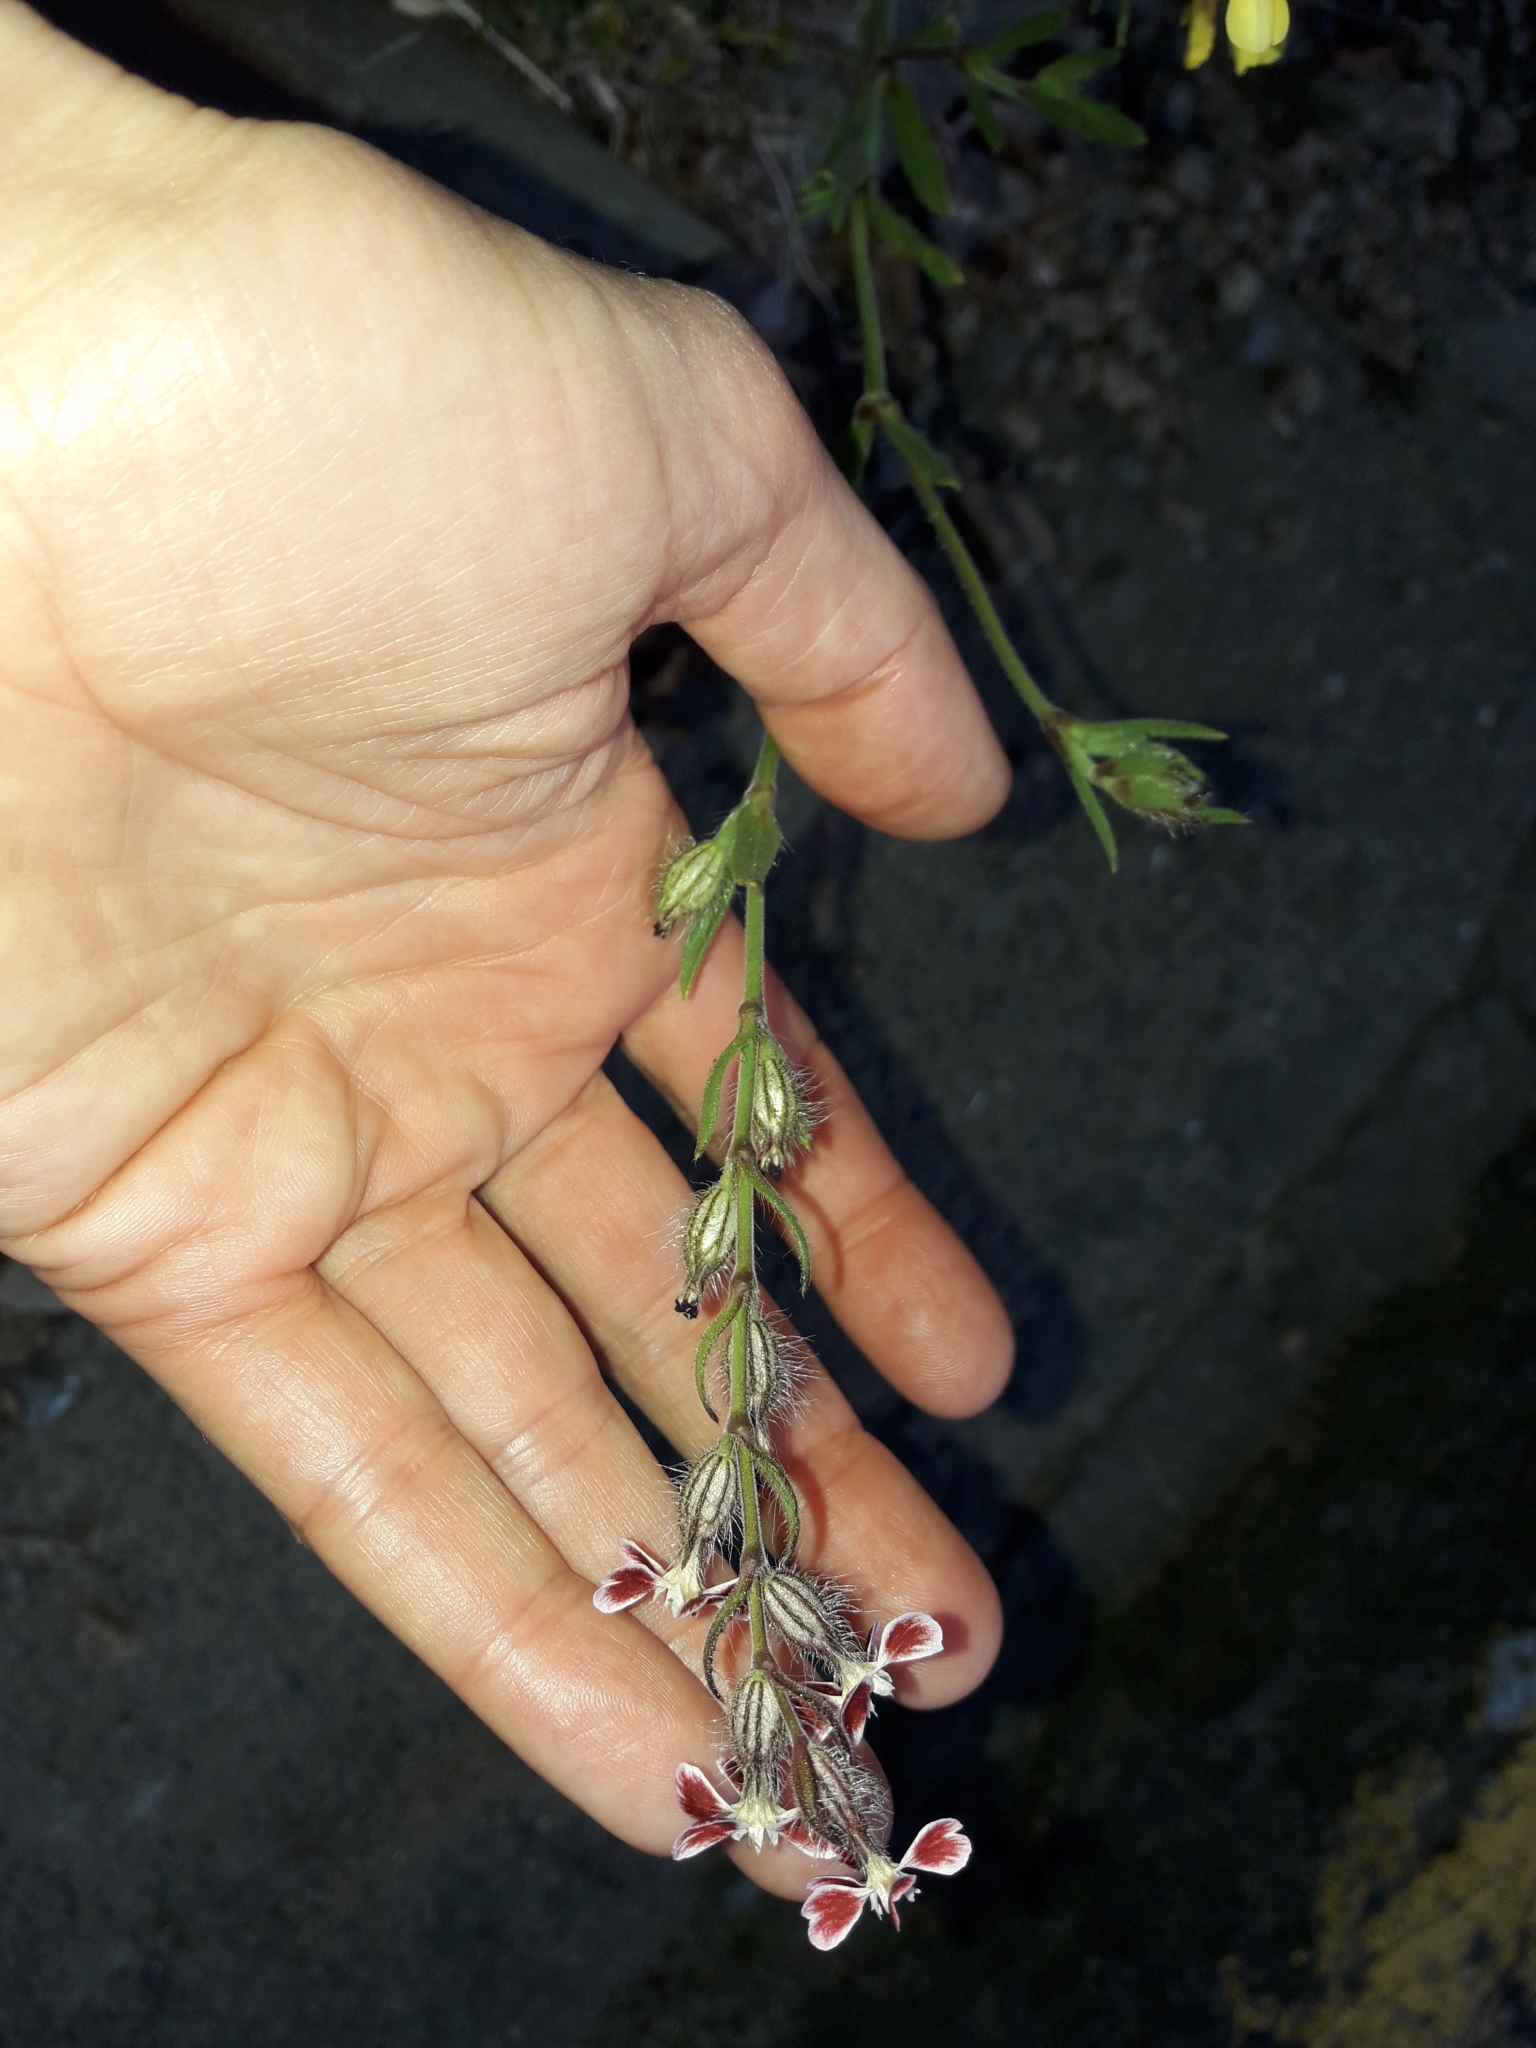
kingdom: Plantae
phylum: Tracheophyta
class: Magnoliopsida
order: Caryophyllales
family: Caryophyllaceae
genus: Silene
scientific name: Silene gallica
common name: Small-flowered catchfly
